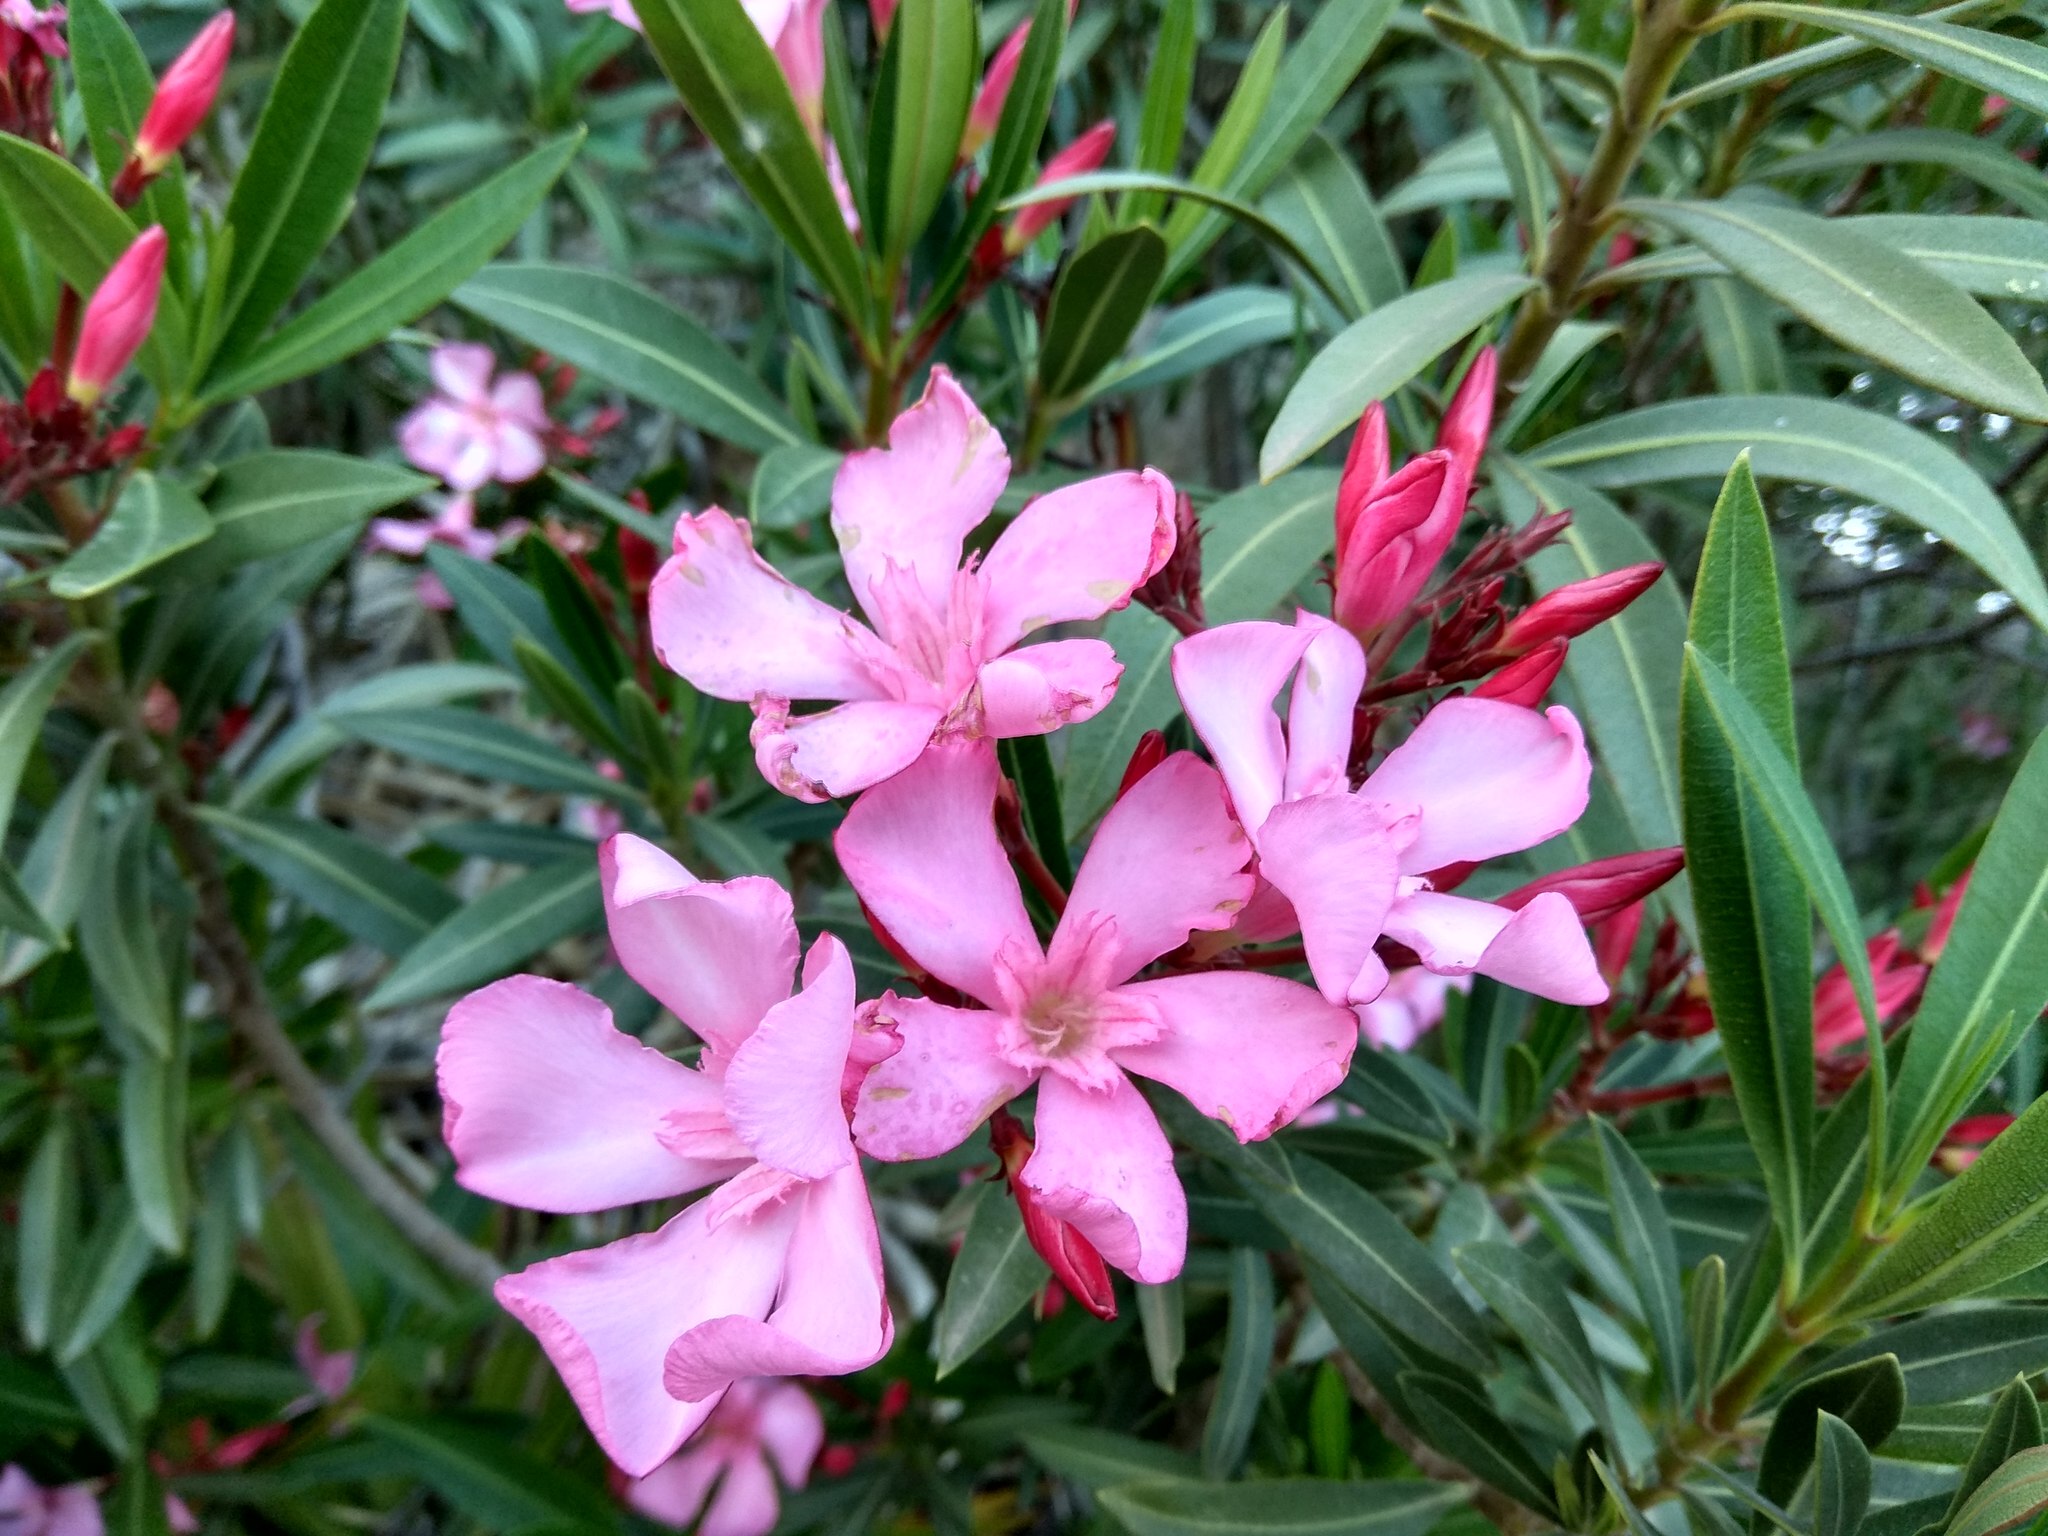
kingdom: Plantae
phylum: Tracheophyta
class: Magnoliopsida
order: Gentianales
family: Apocynaceae
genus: Nerium
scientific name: Nerium oleander
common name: Oleander
